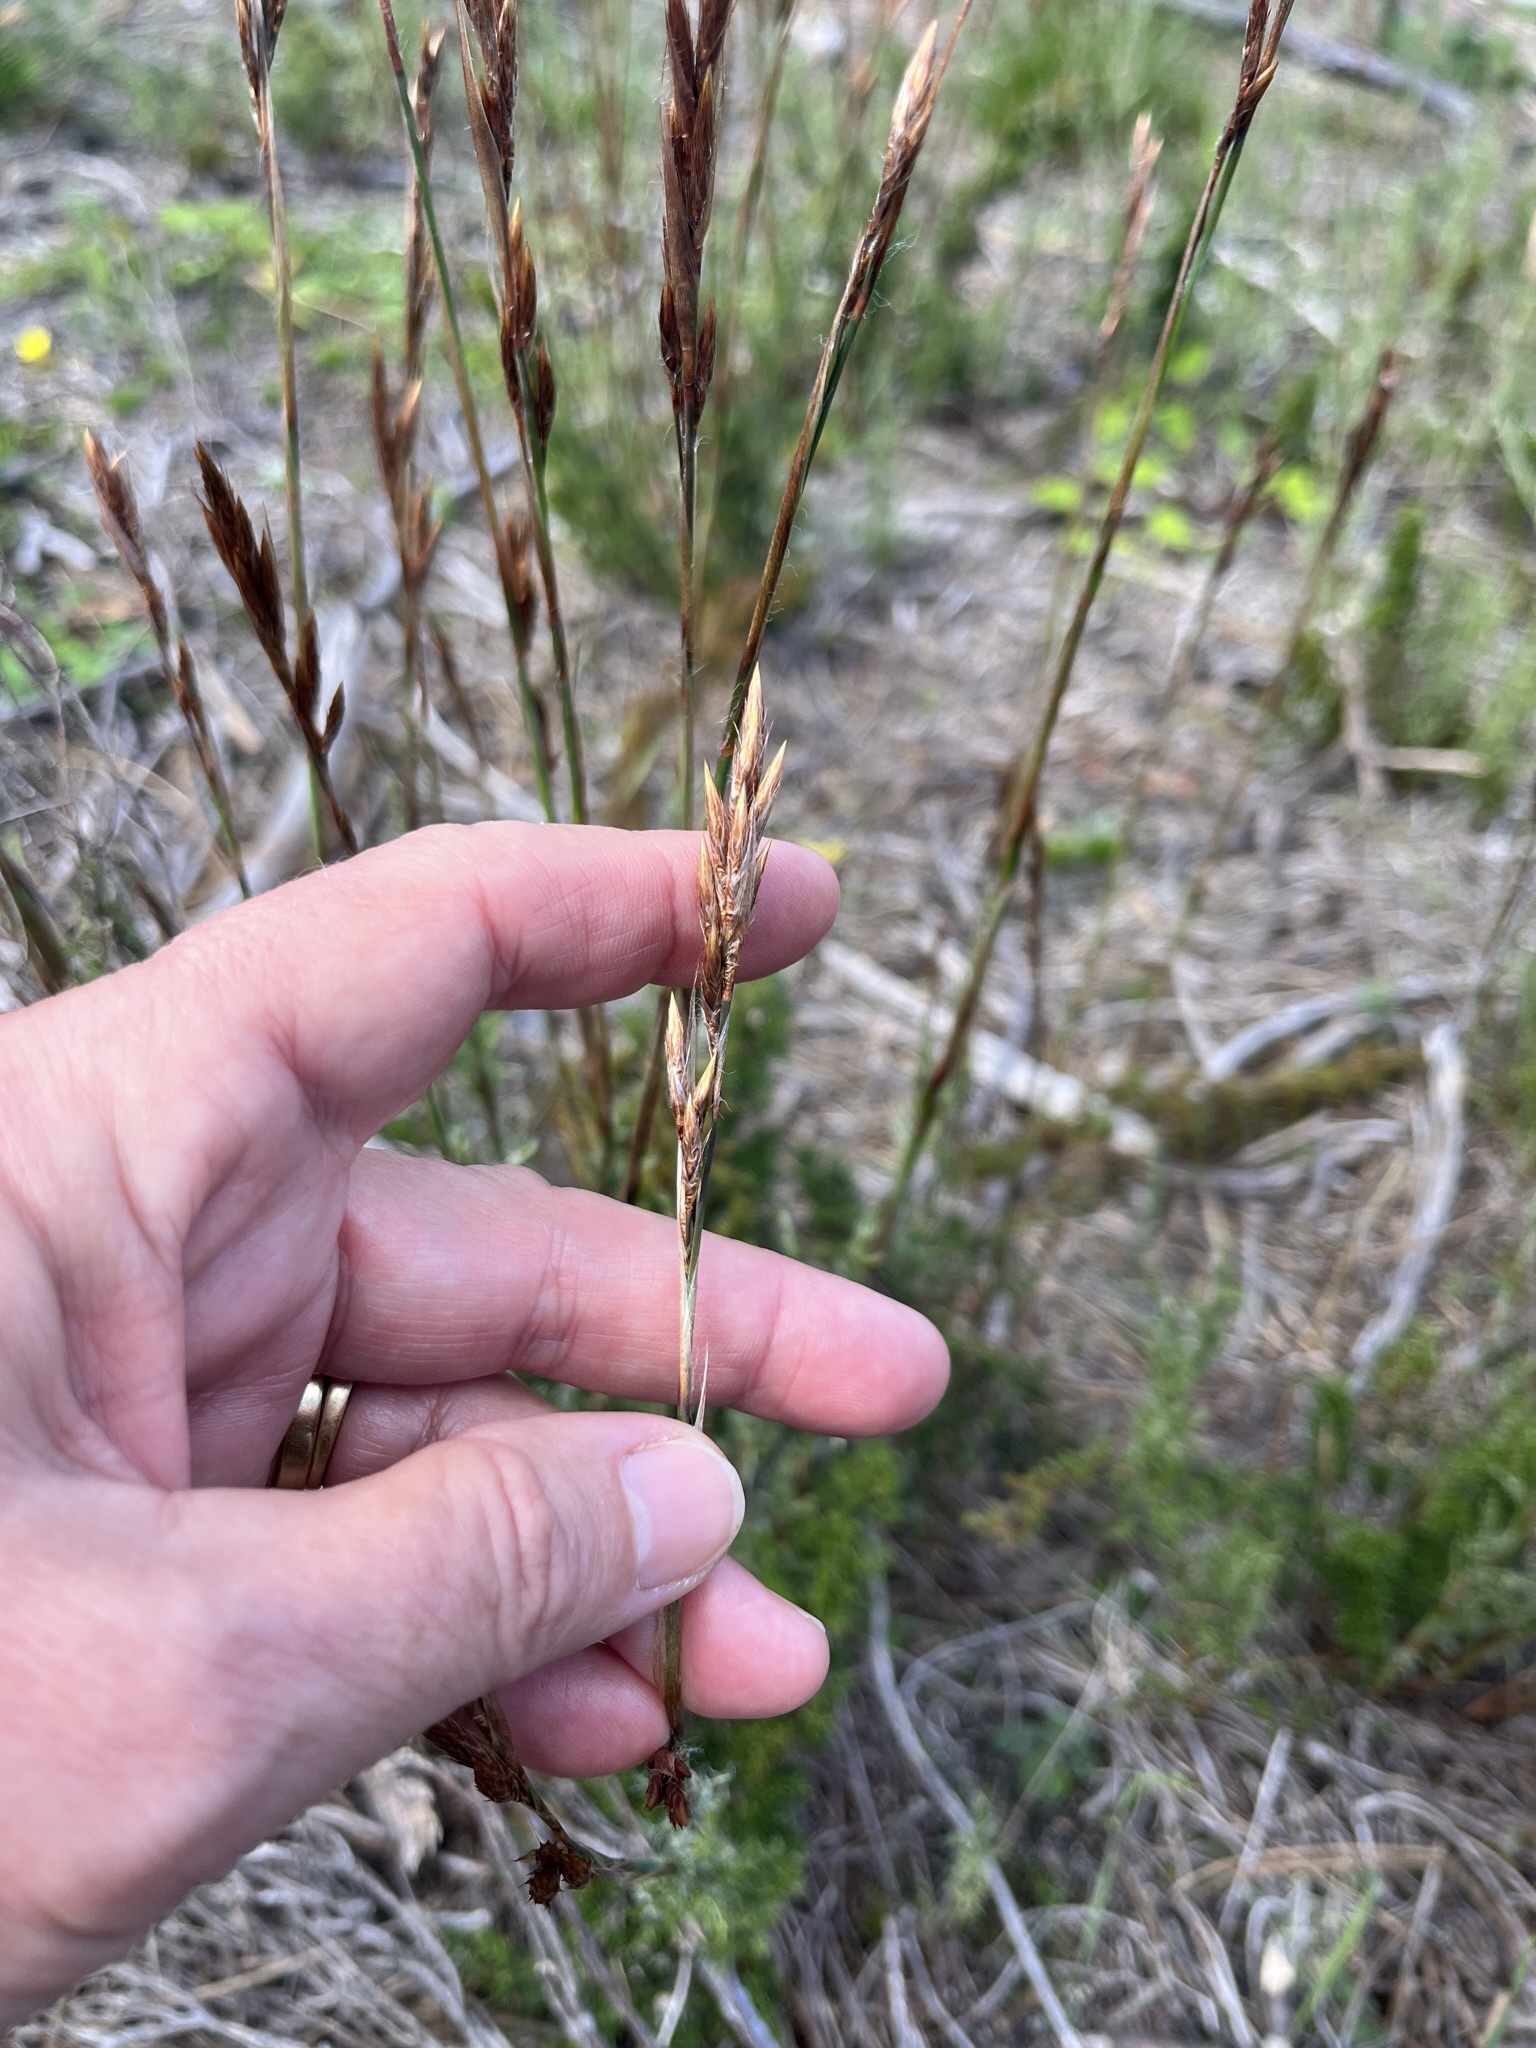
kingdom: Plantae
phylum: Tracheophyta
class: Liliopsida
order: Poales
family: Restionaceae
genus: Thamnochortus
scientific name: Thamnochortus fruticosus
